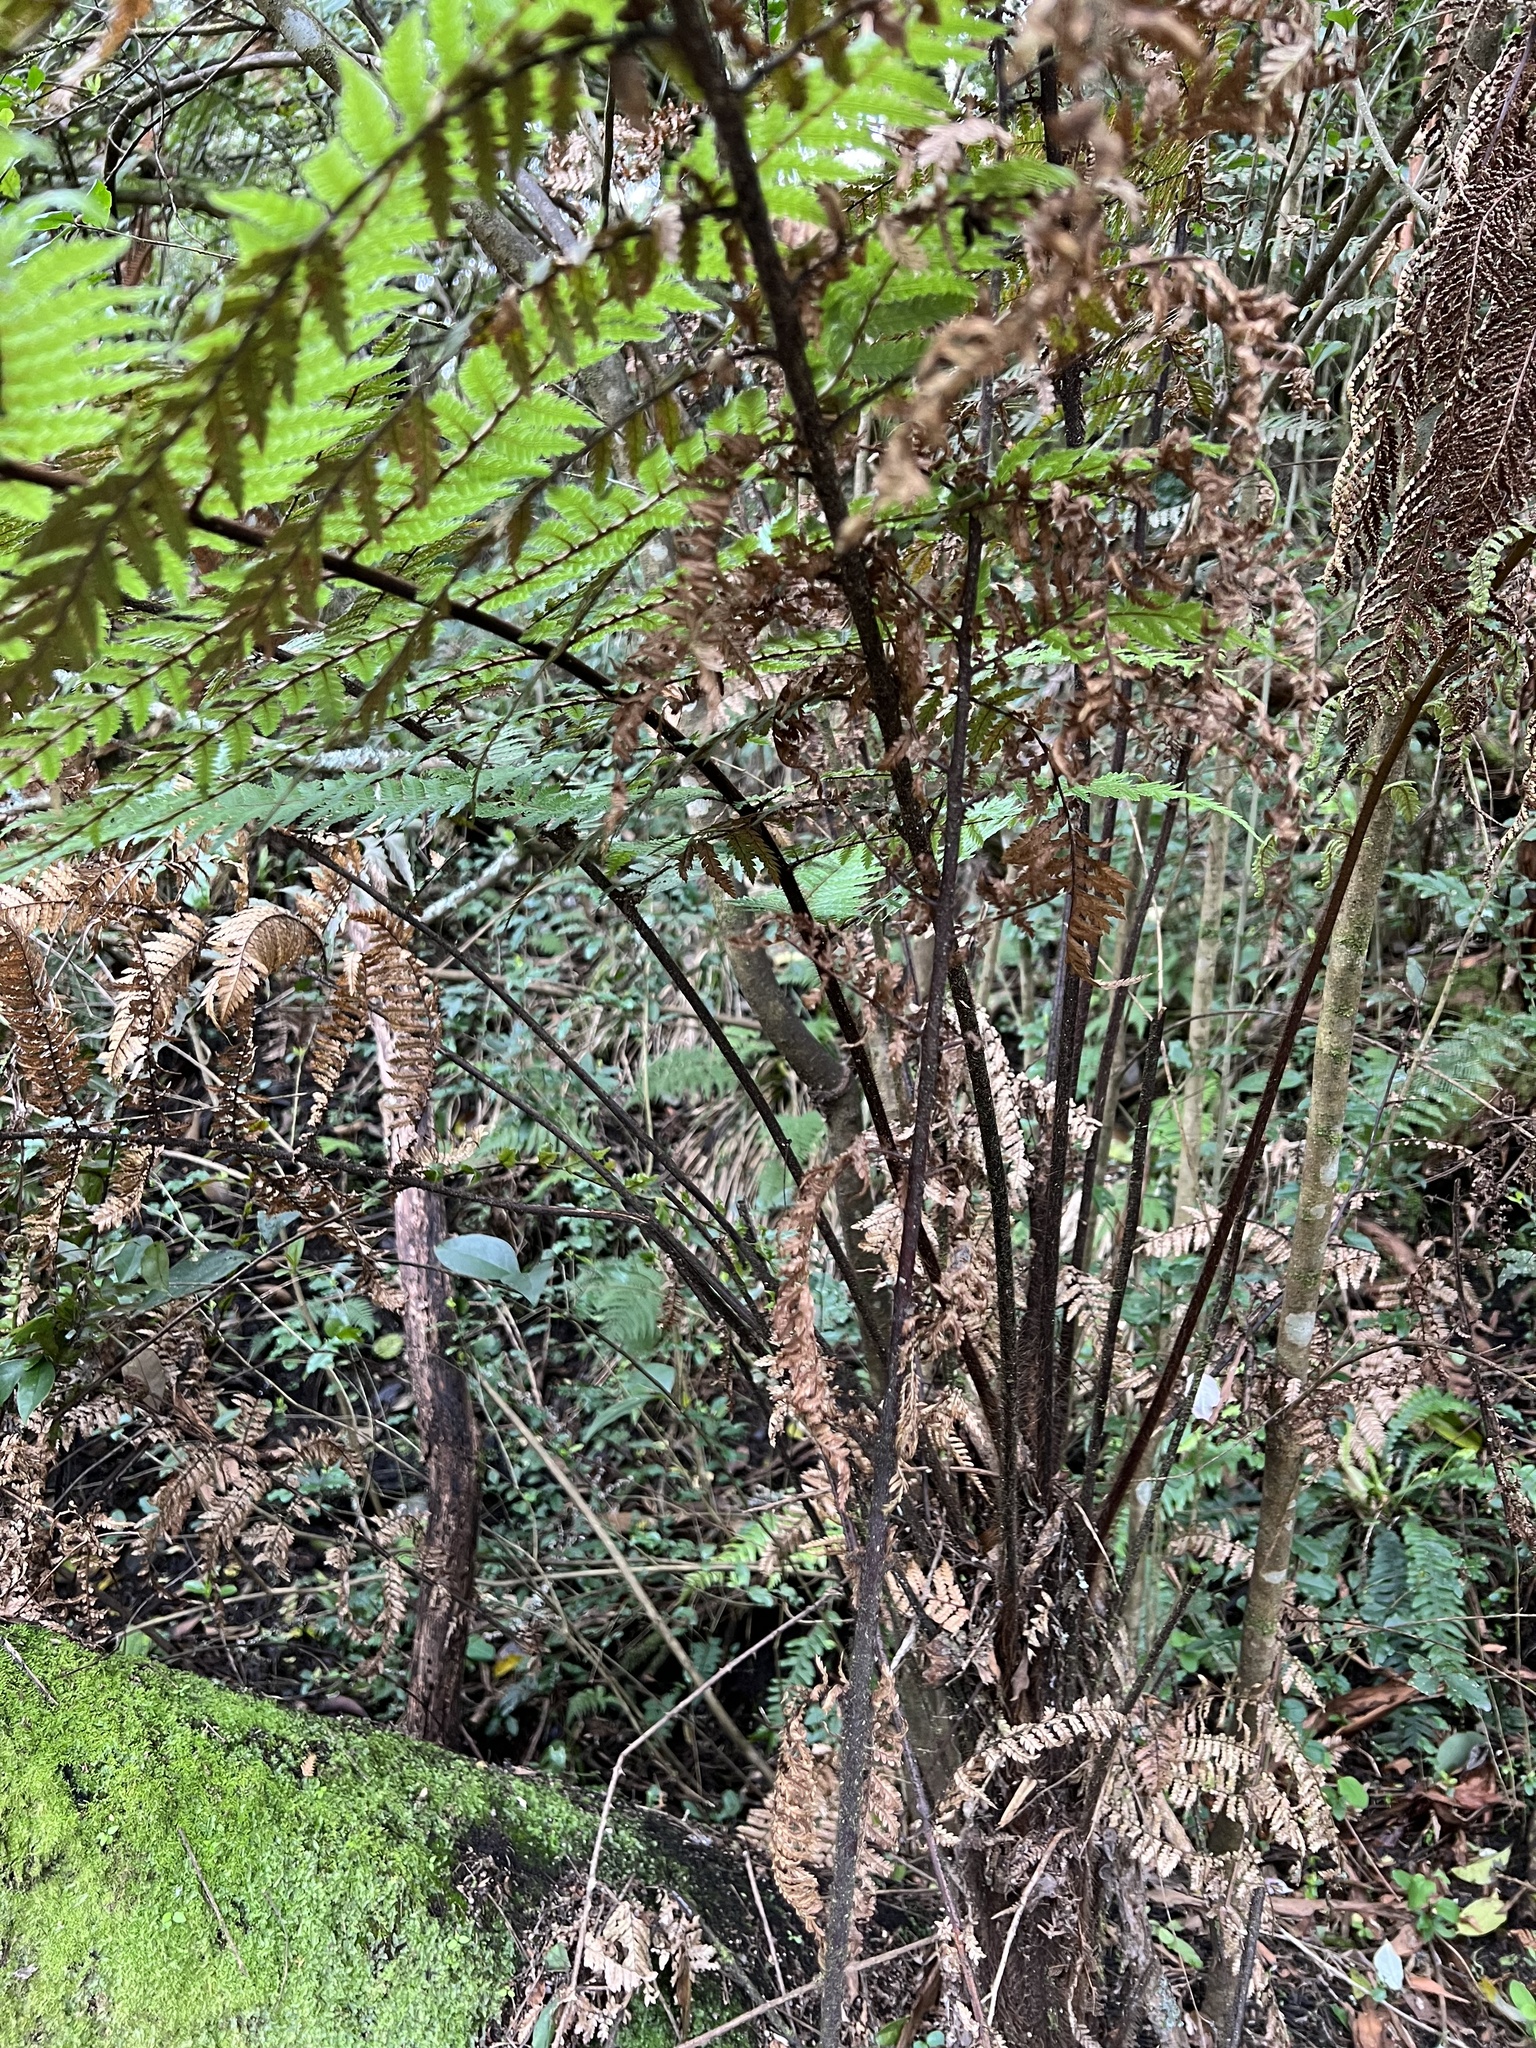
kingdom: Plantae
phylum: Tracheophyta
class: Polypodiopsida
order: Cyatheales
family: Dicksoniaceae
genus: Dicksonia
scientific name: Dicksonia squarrosa
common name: Hard treefern
